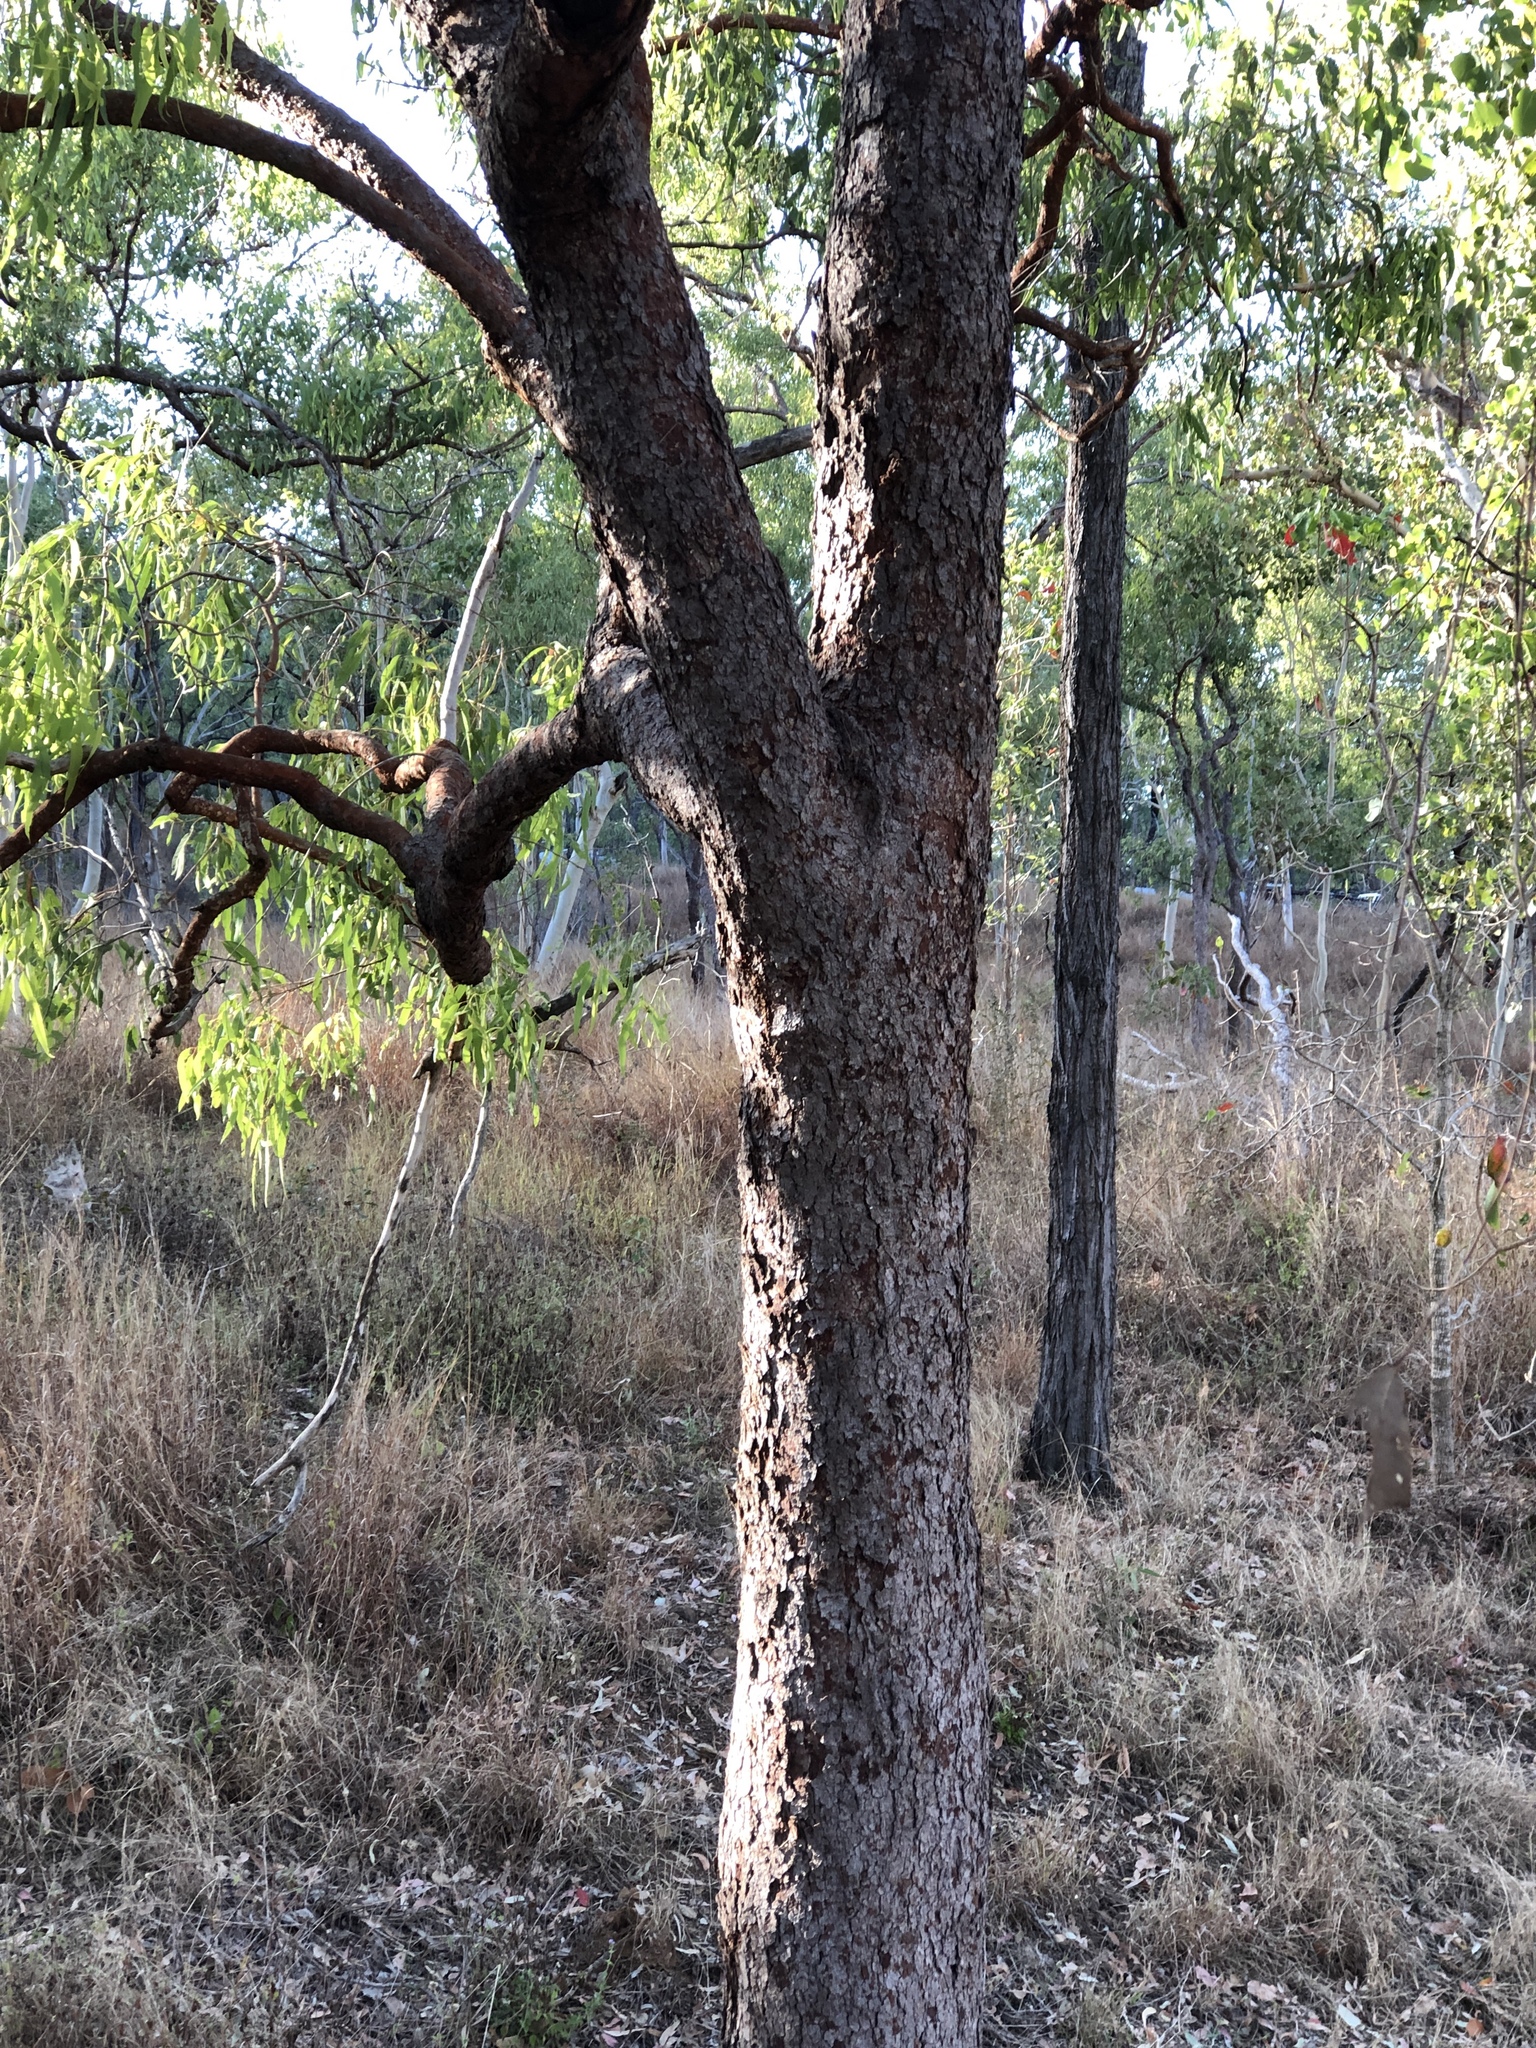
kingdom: Plantae
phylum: Tracheophyta
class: Magnoliopsida
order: Myrtales
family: Myrtaceae
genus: Corymbia
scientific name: Corymbia erythrophloia
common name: Red bloodwood
